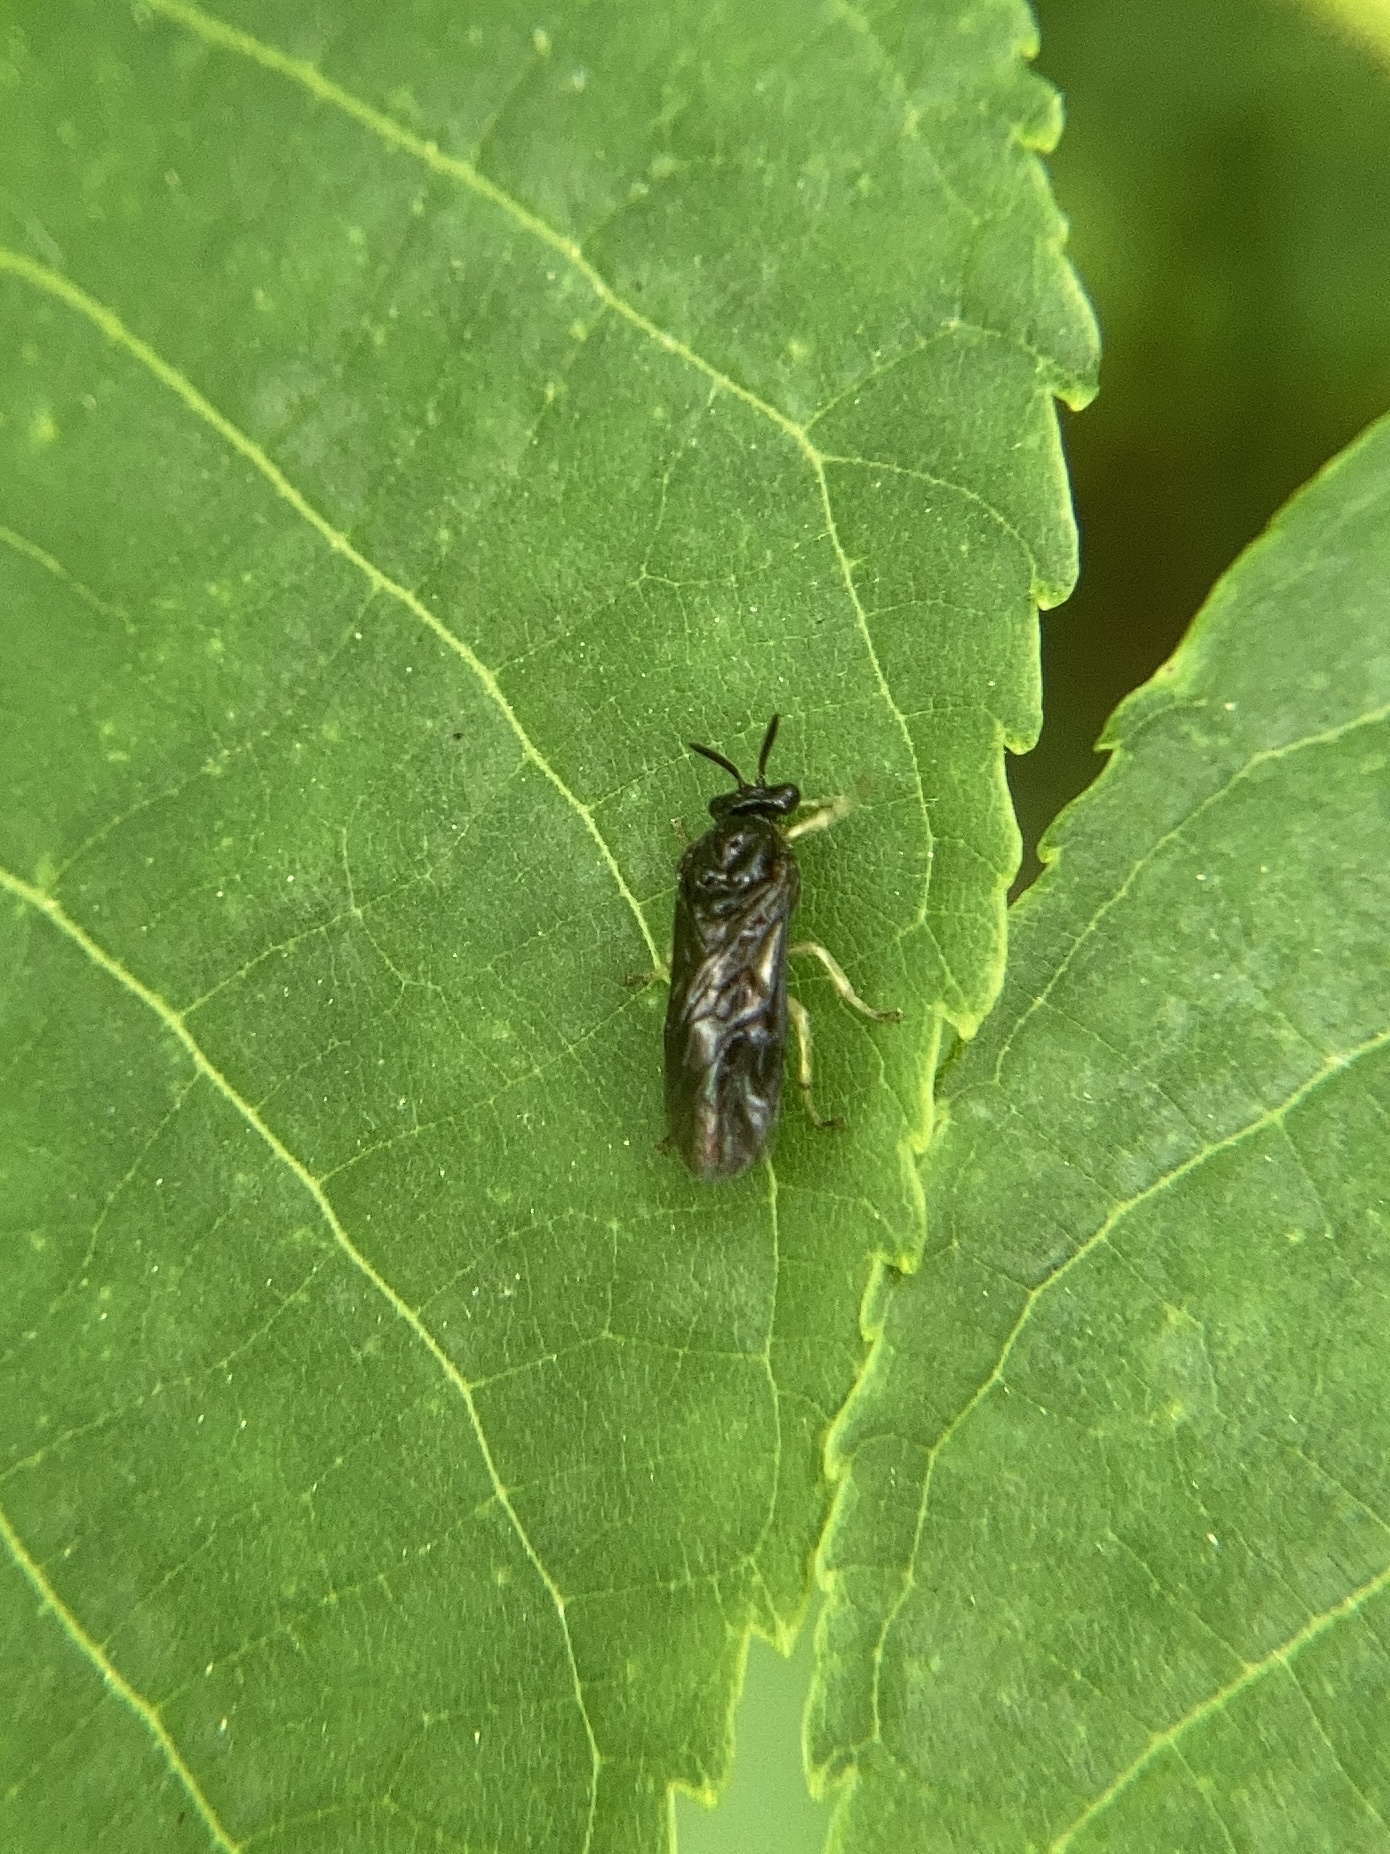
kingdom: Animalia
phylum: Arthropoda
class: Insecta
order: Hymenoptera
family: Argidae
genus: Aproceros
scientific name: Aproceros leucopoda
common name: Zig-zag elm sawfly
